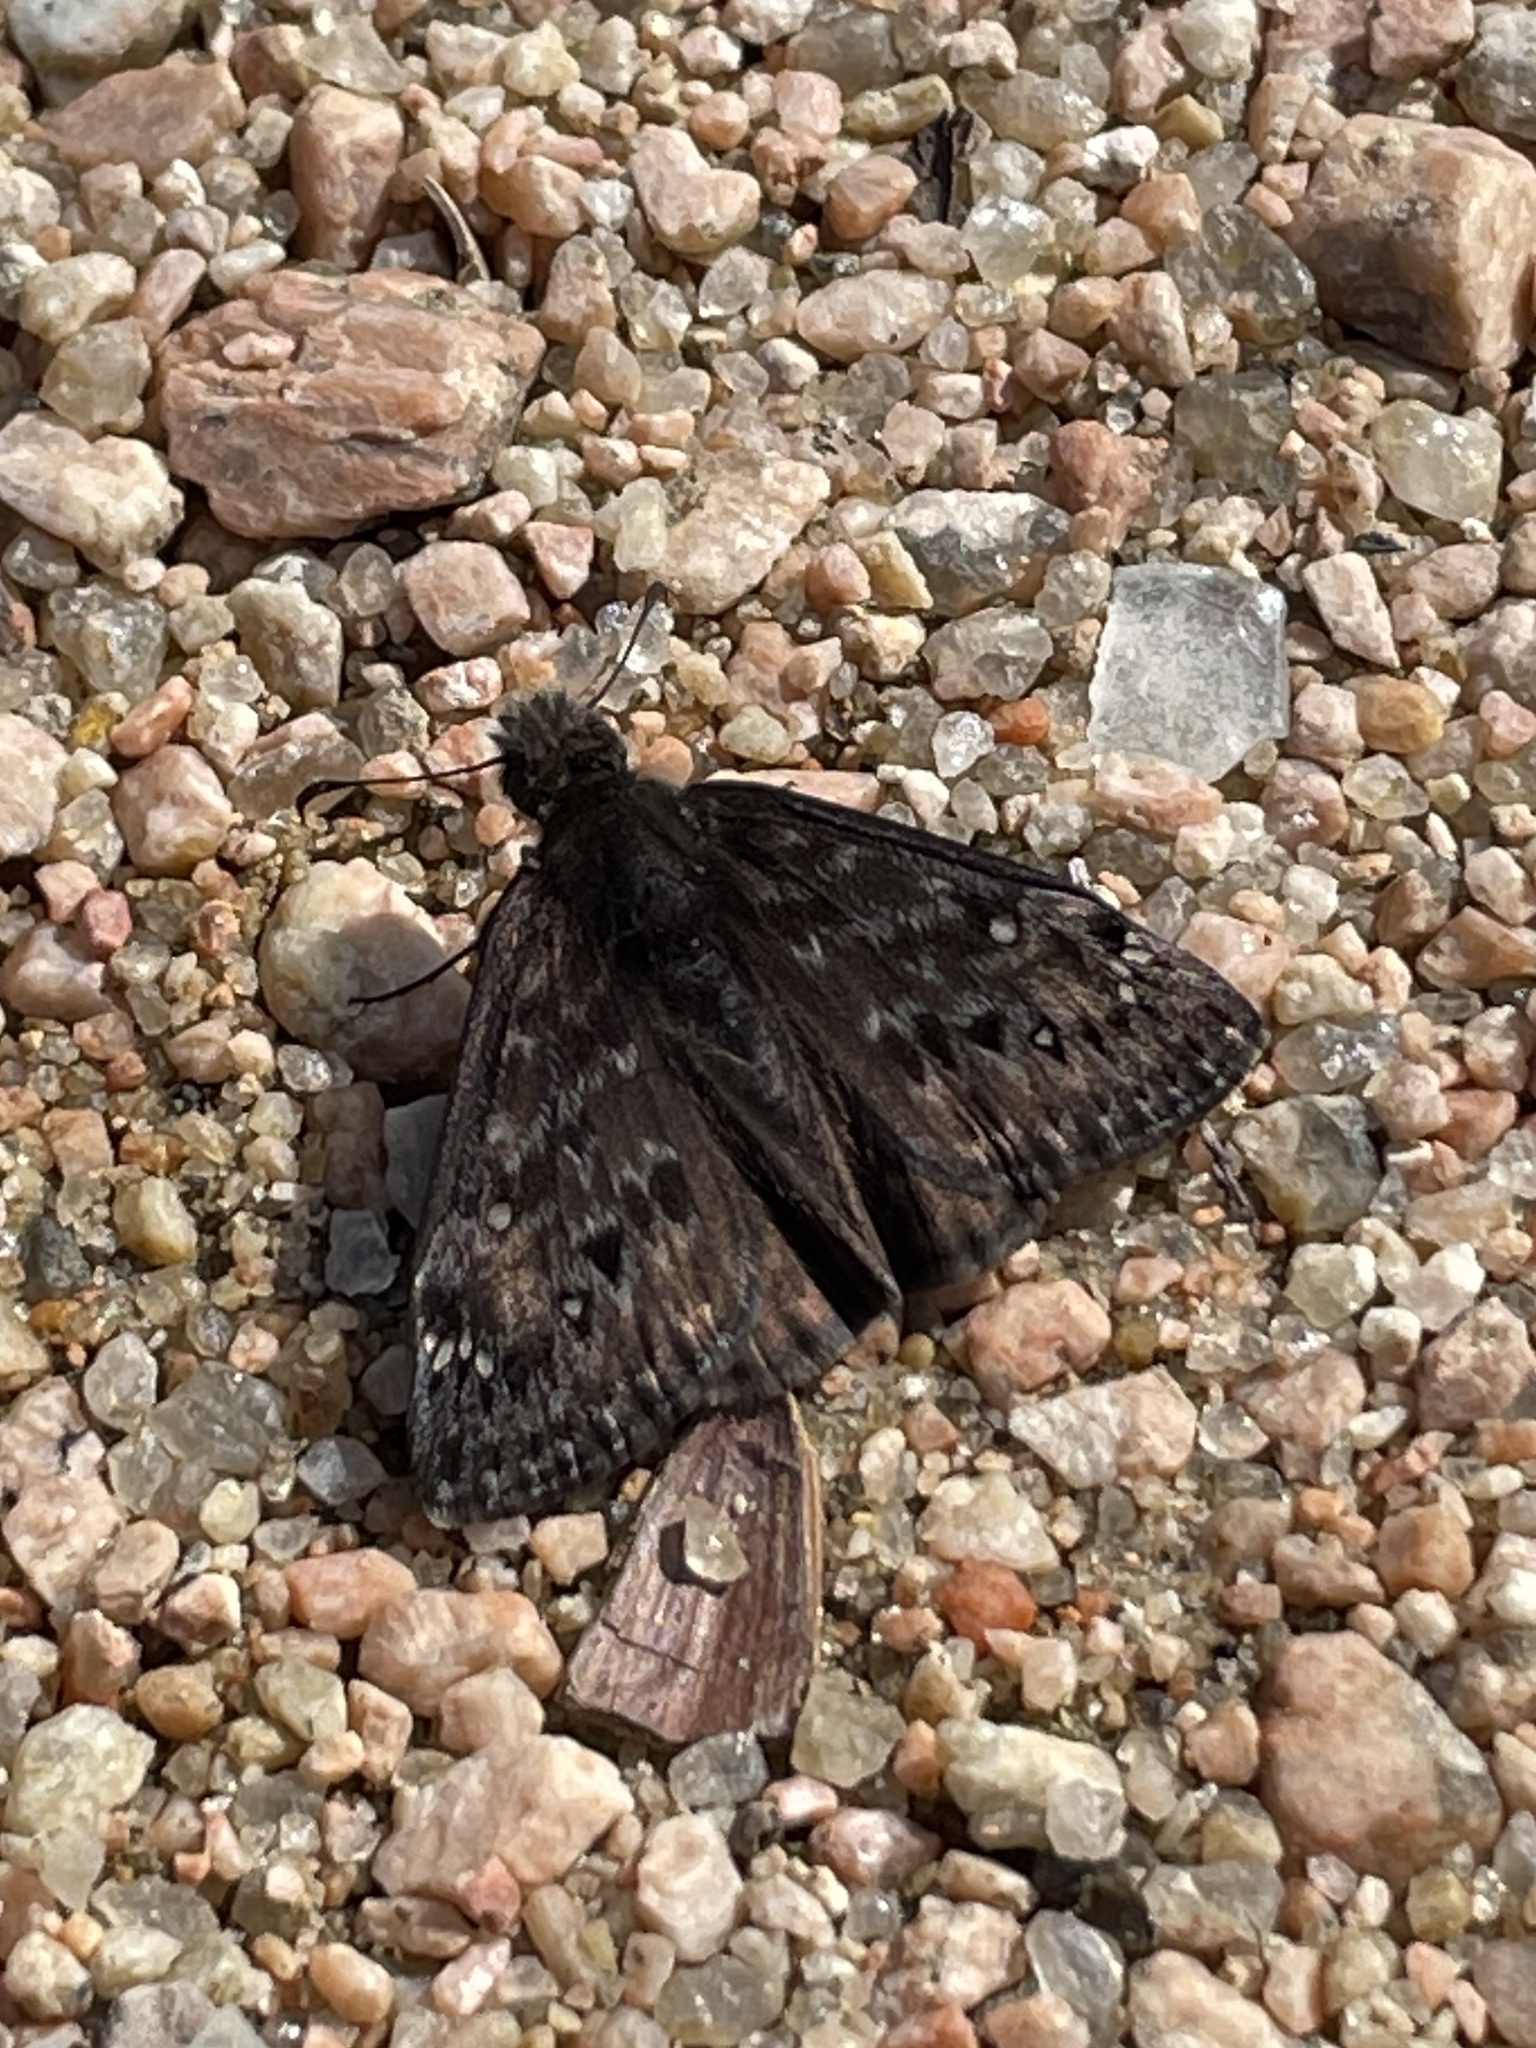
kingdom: Animalia
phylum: Arthropoda
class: Insecta
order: Lepidoptera
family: Hesperiidae
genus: Erynnis
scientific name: Erynnis juvenalis
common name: Juvenal's duskywing
